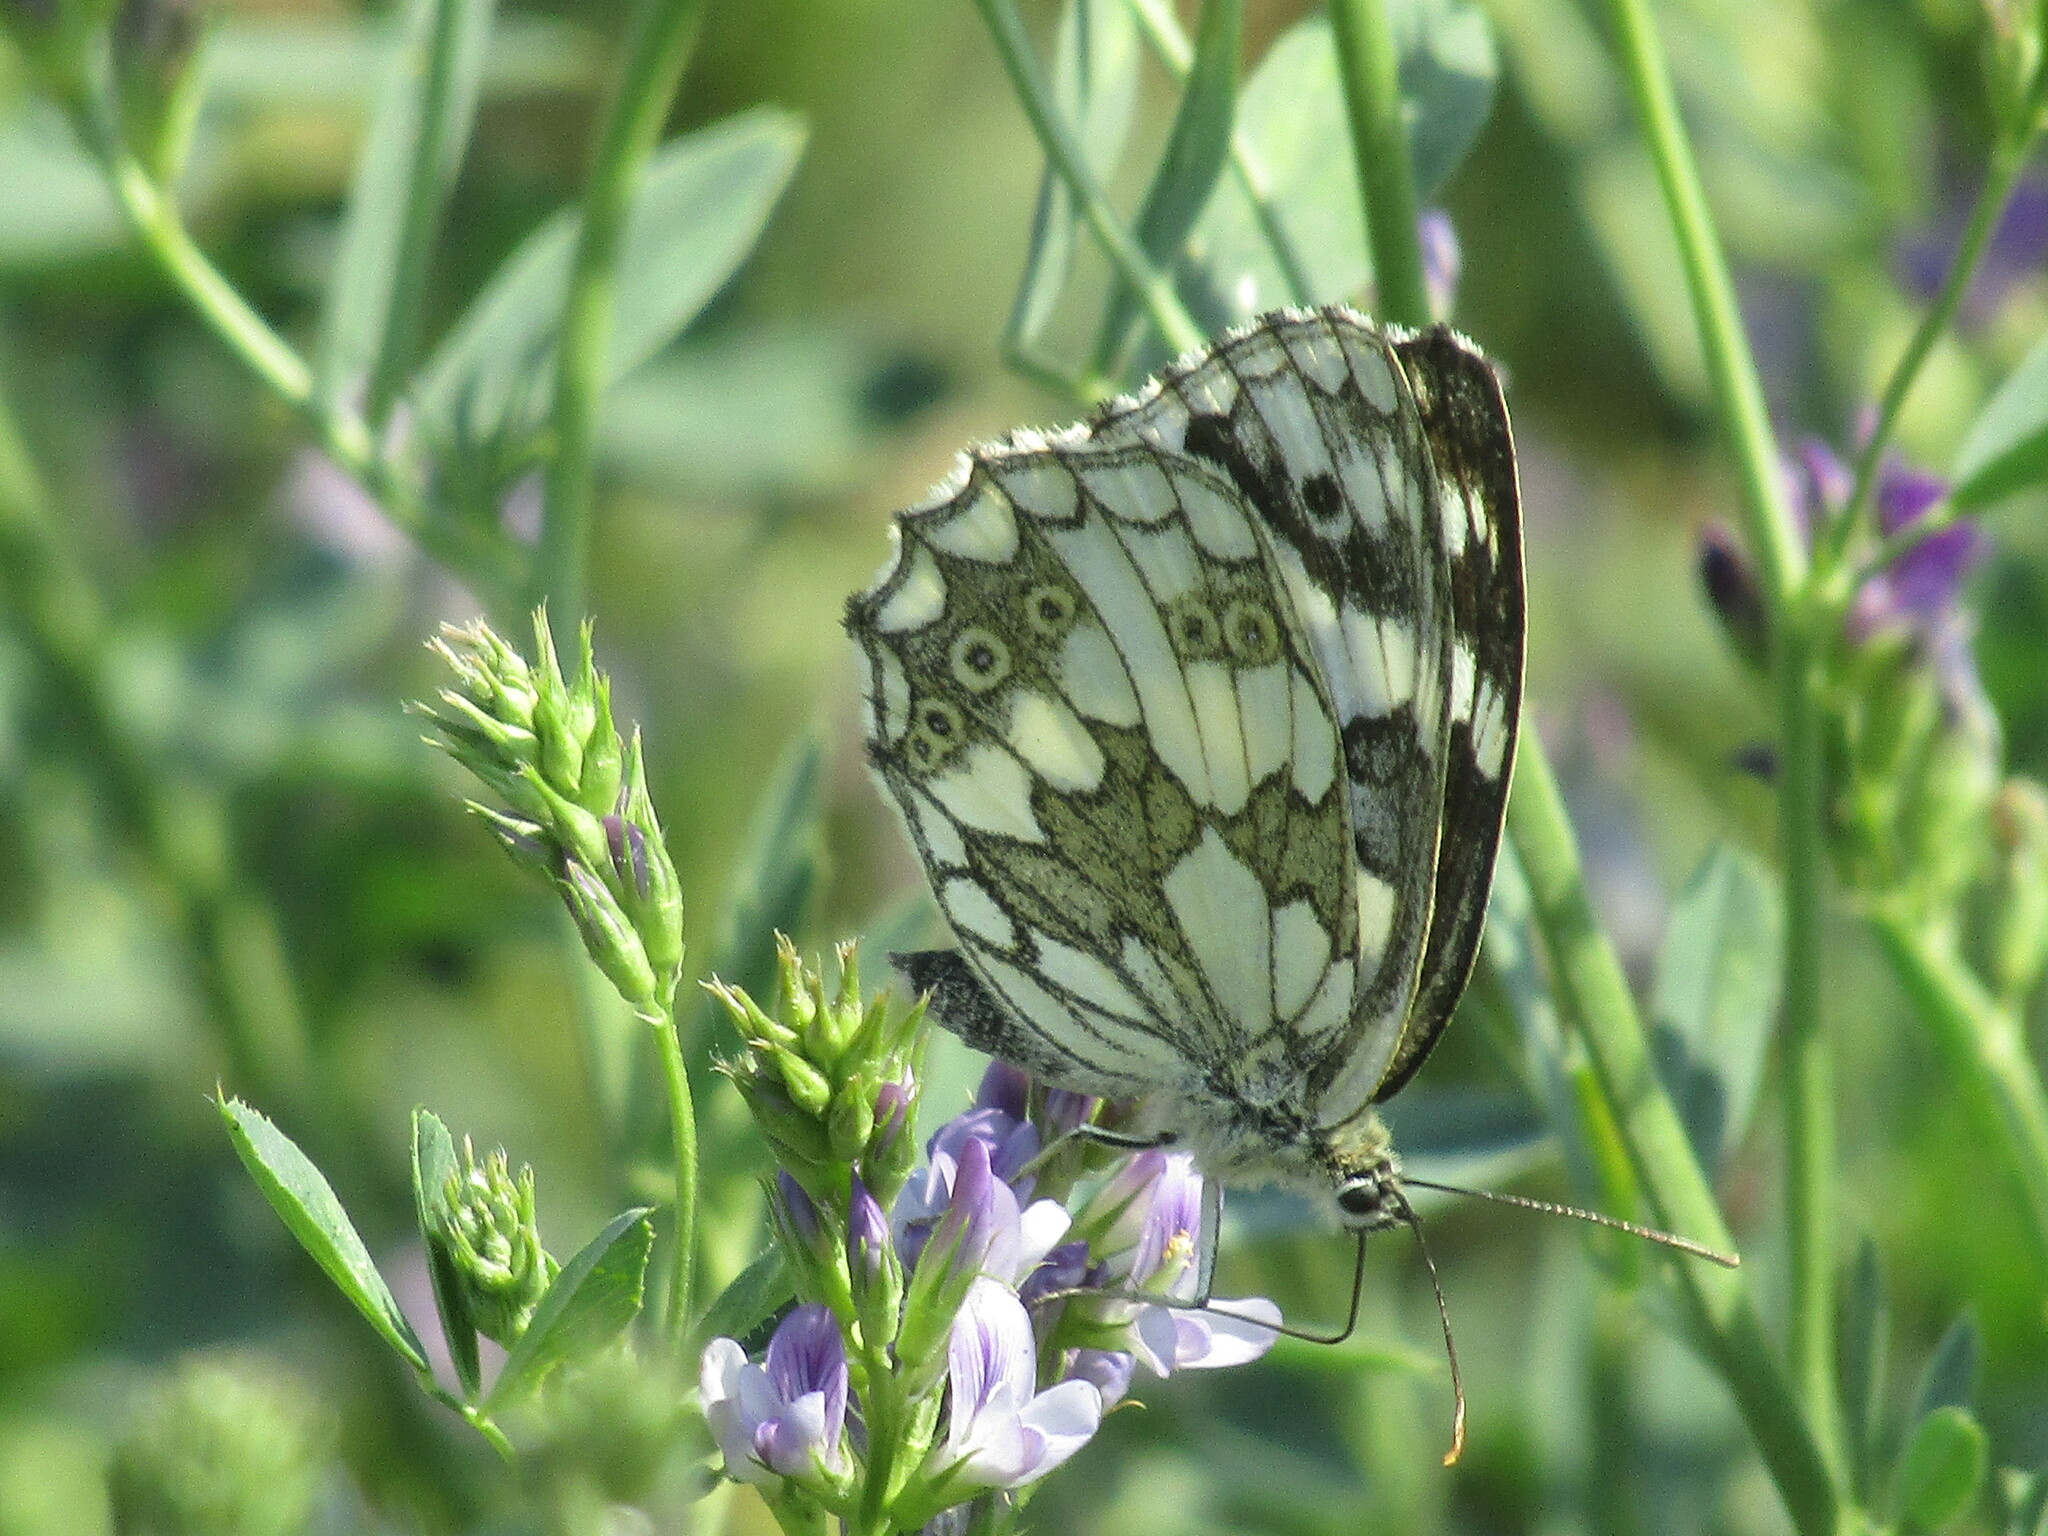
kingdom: Animalia
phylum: Arthropoda
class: Insecta
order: Lepidoptera
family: Nymphalidae
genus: Melanargia
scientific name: Melanargia galathea
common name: Marbled white
